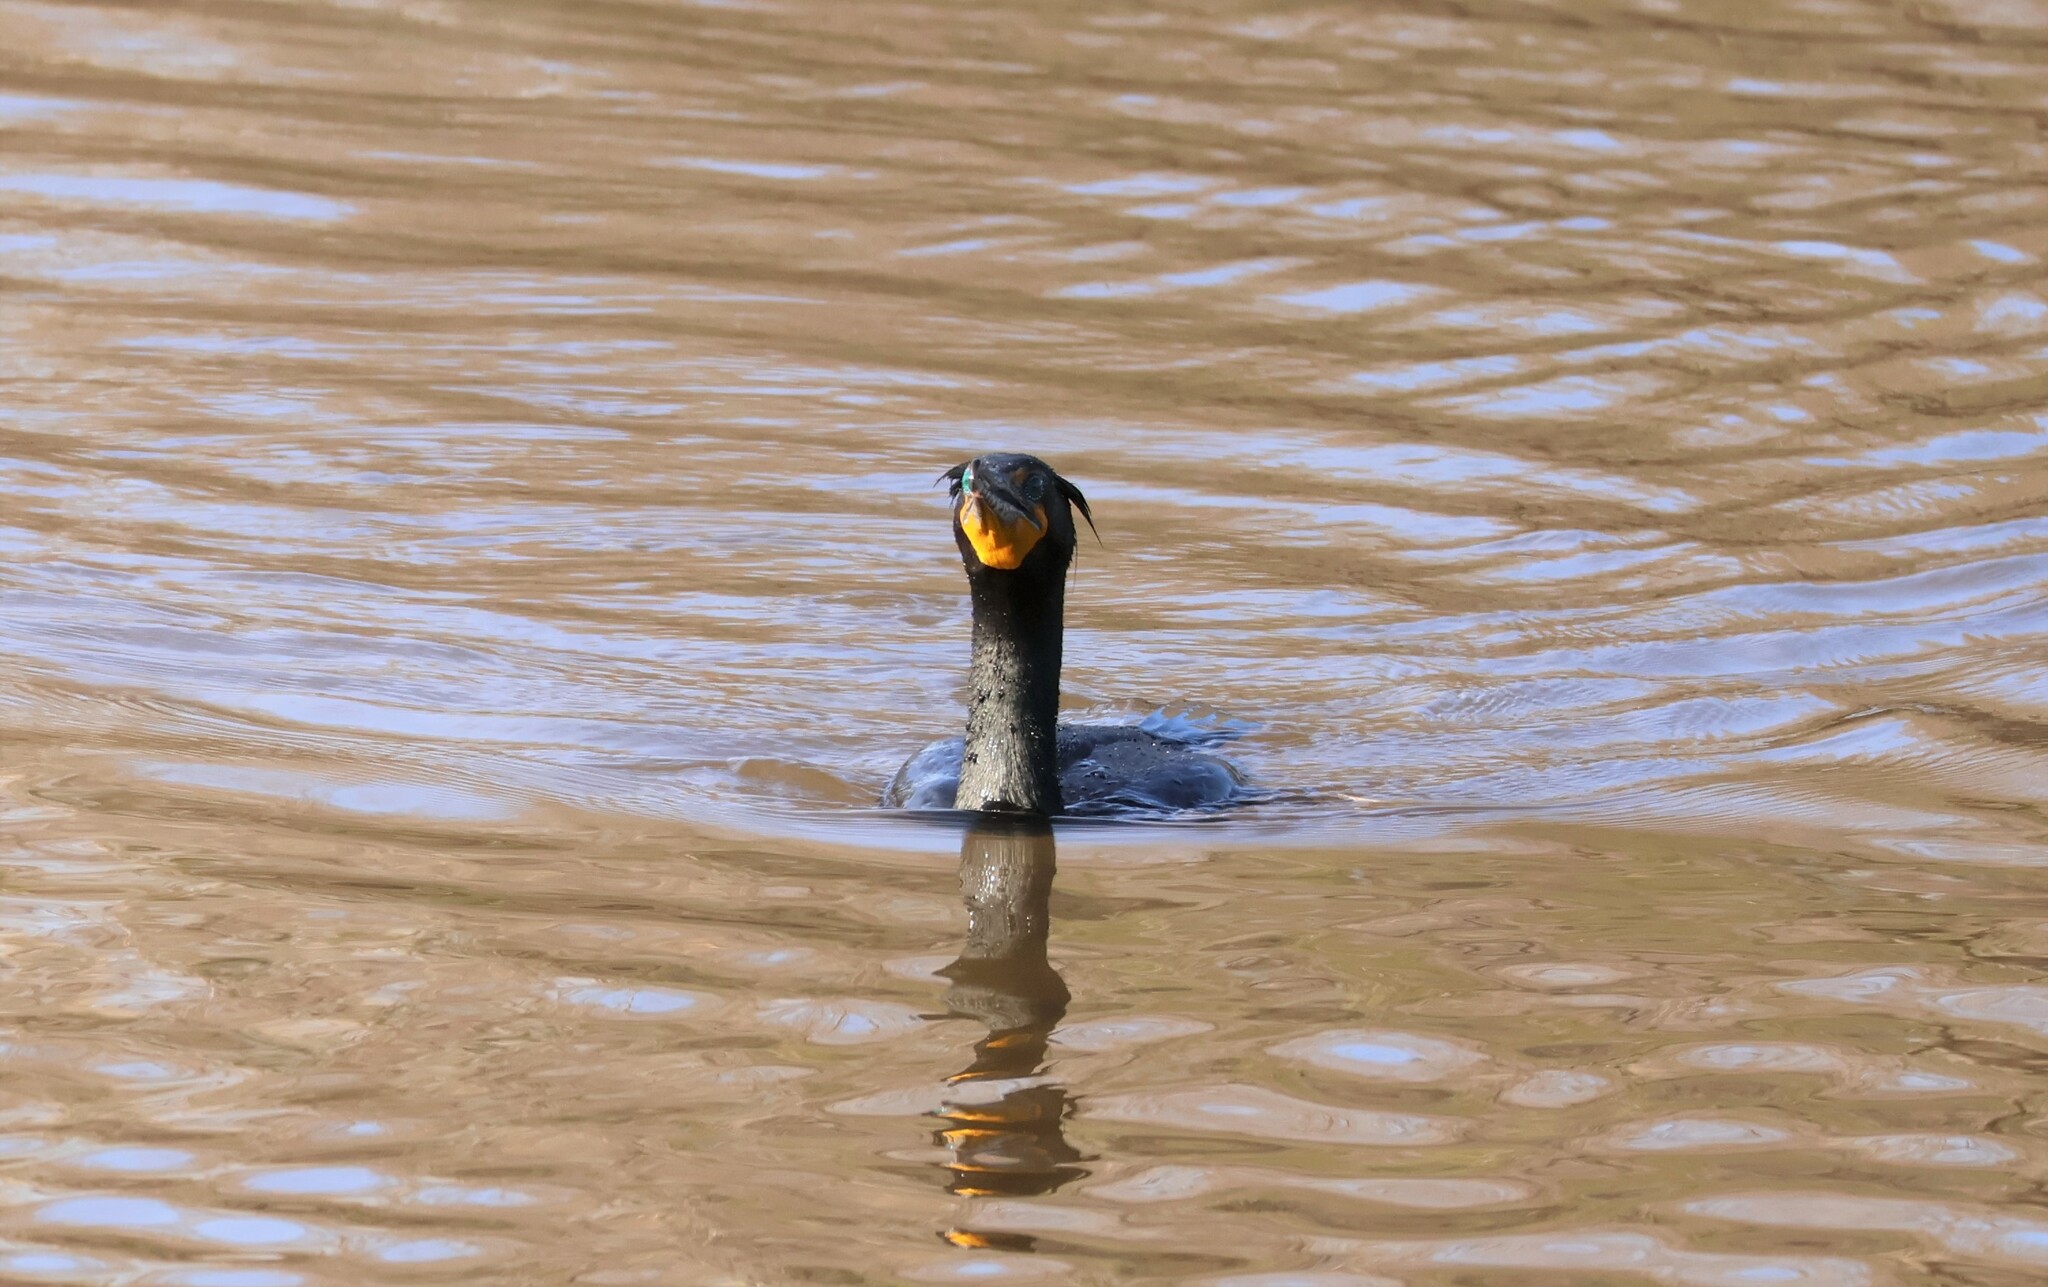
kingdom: Animalia
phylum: Chordata
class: Aves
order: Suliformes
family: Phalacrocoracidae
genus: Phalacrocorax
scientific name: Phalacrocorax auritus
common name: Double-crested cormorant
